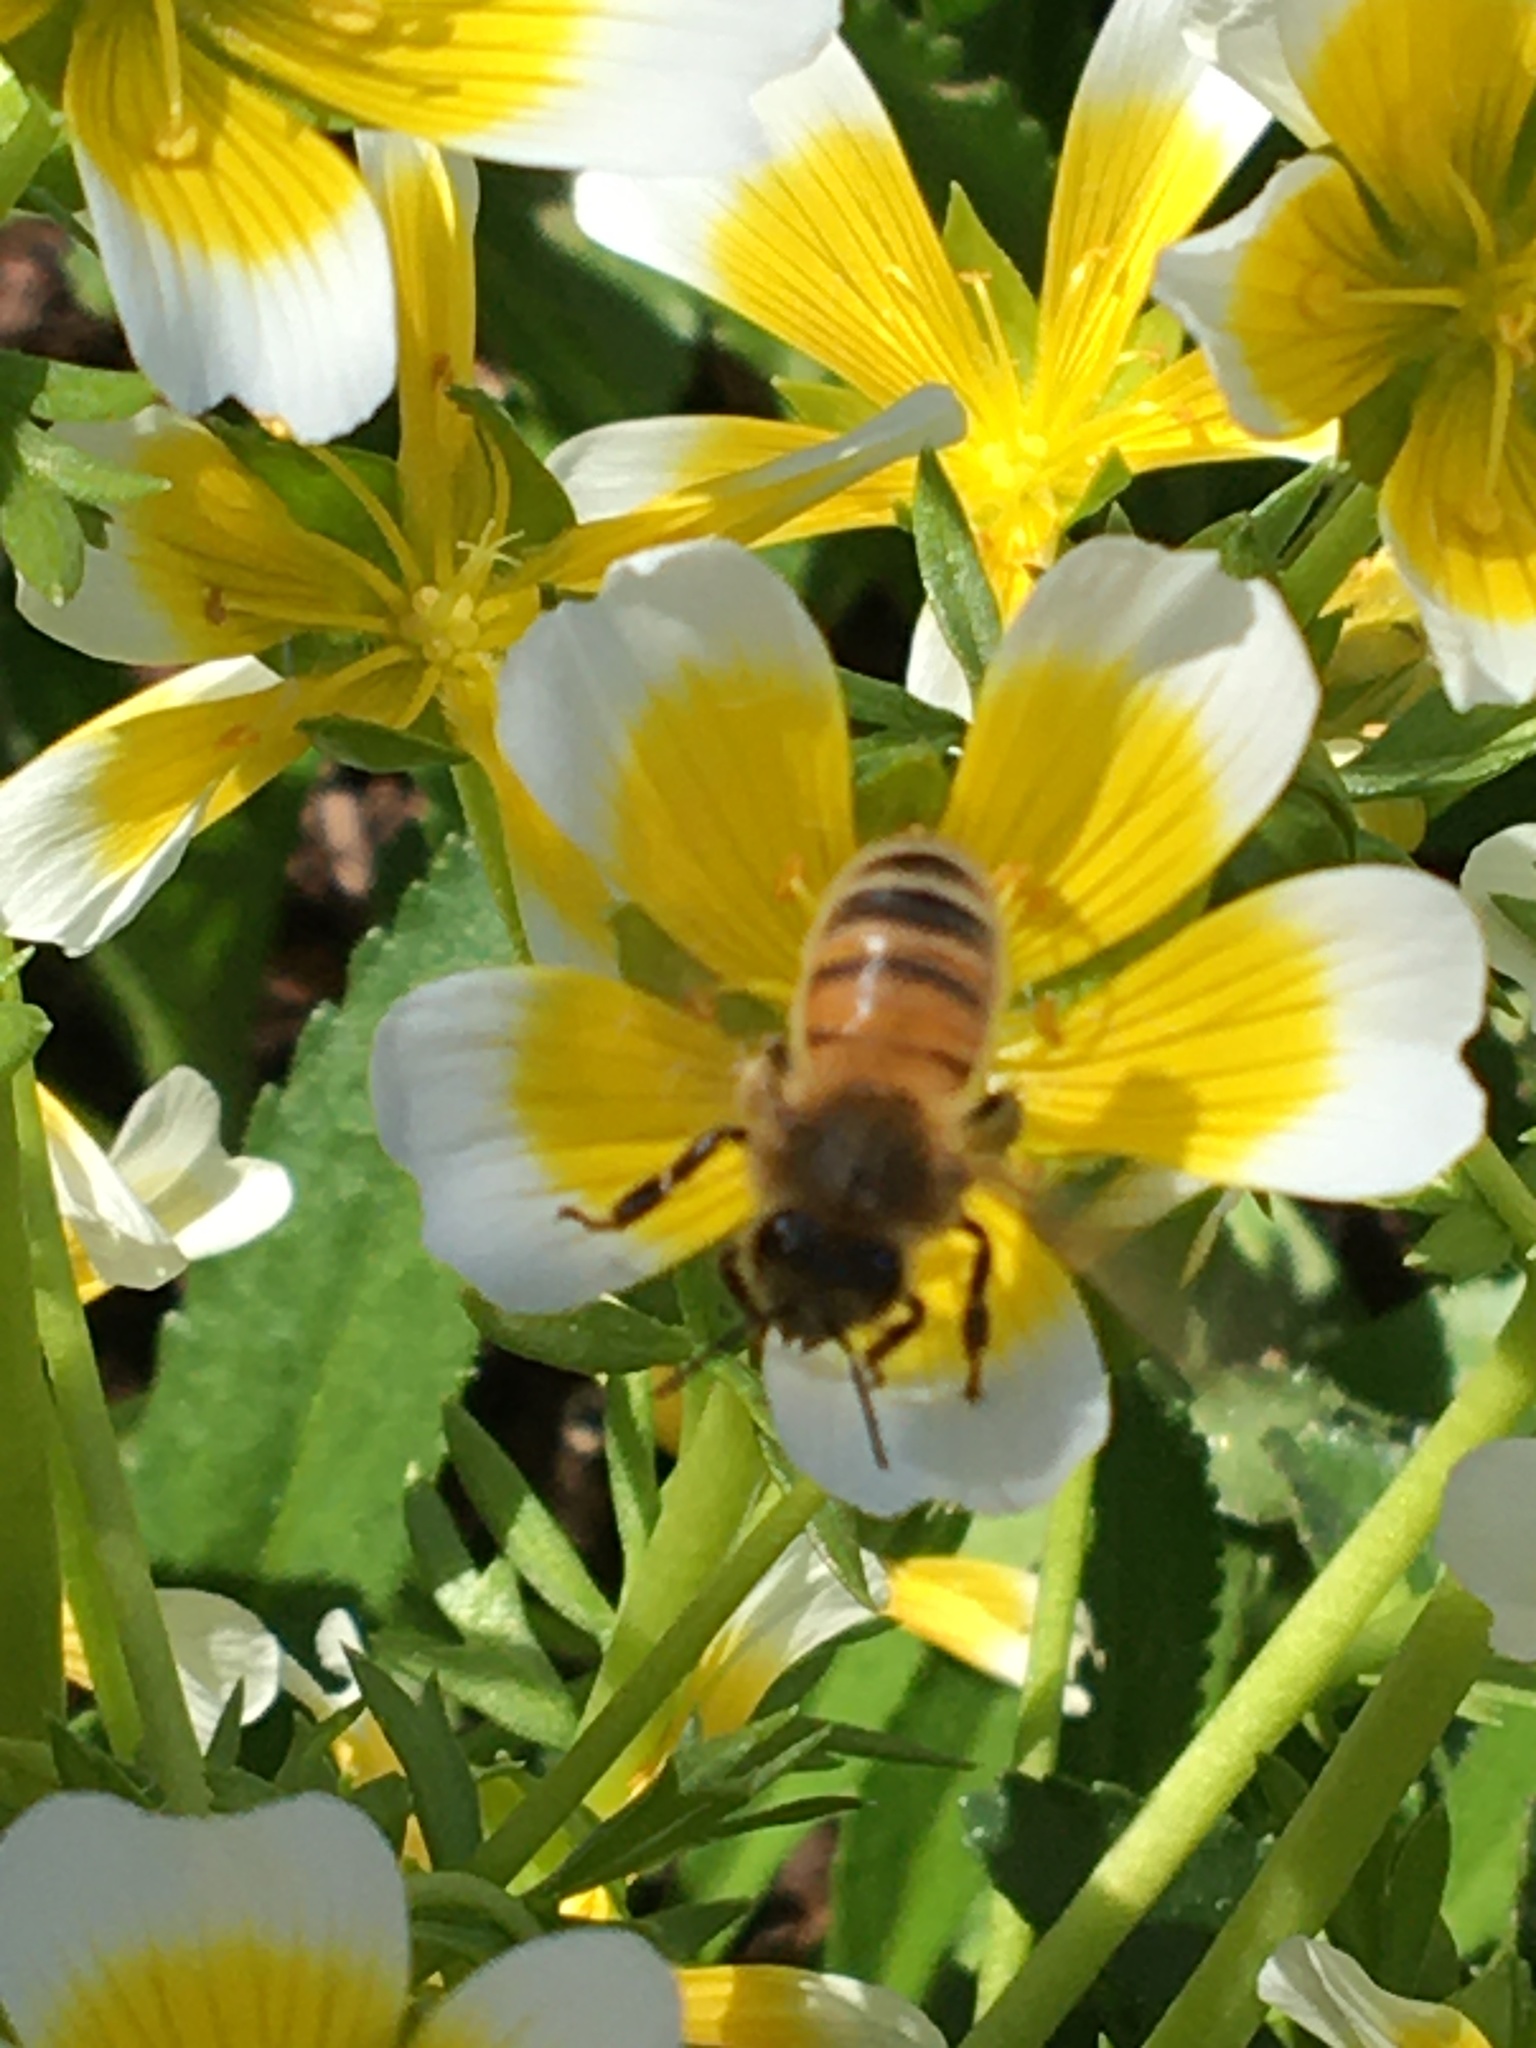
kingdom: Animalia
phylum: Arthropoda
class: Insecta
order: Hymenoptera
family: Apidae
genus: Apis
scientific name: Apis mellifera
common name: Honey bee
